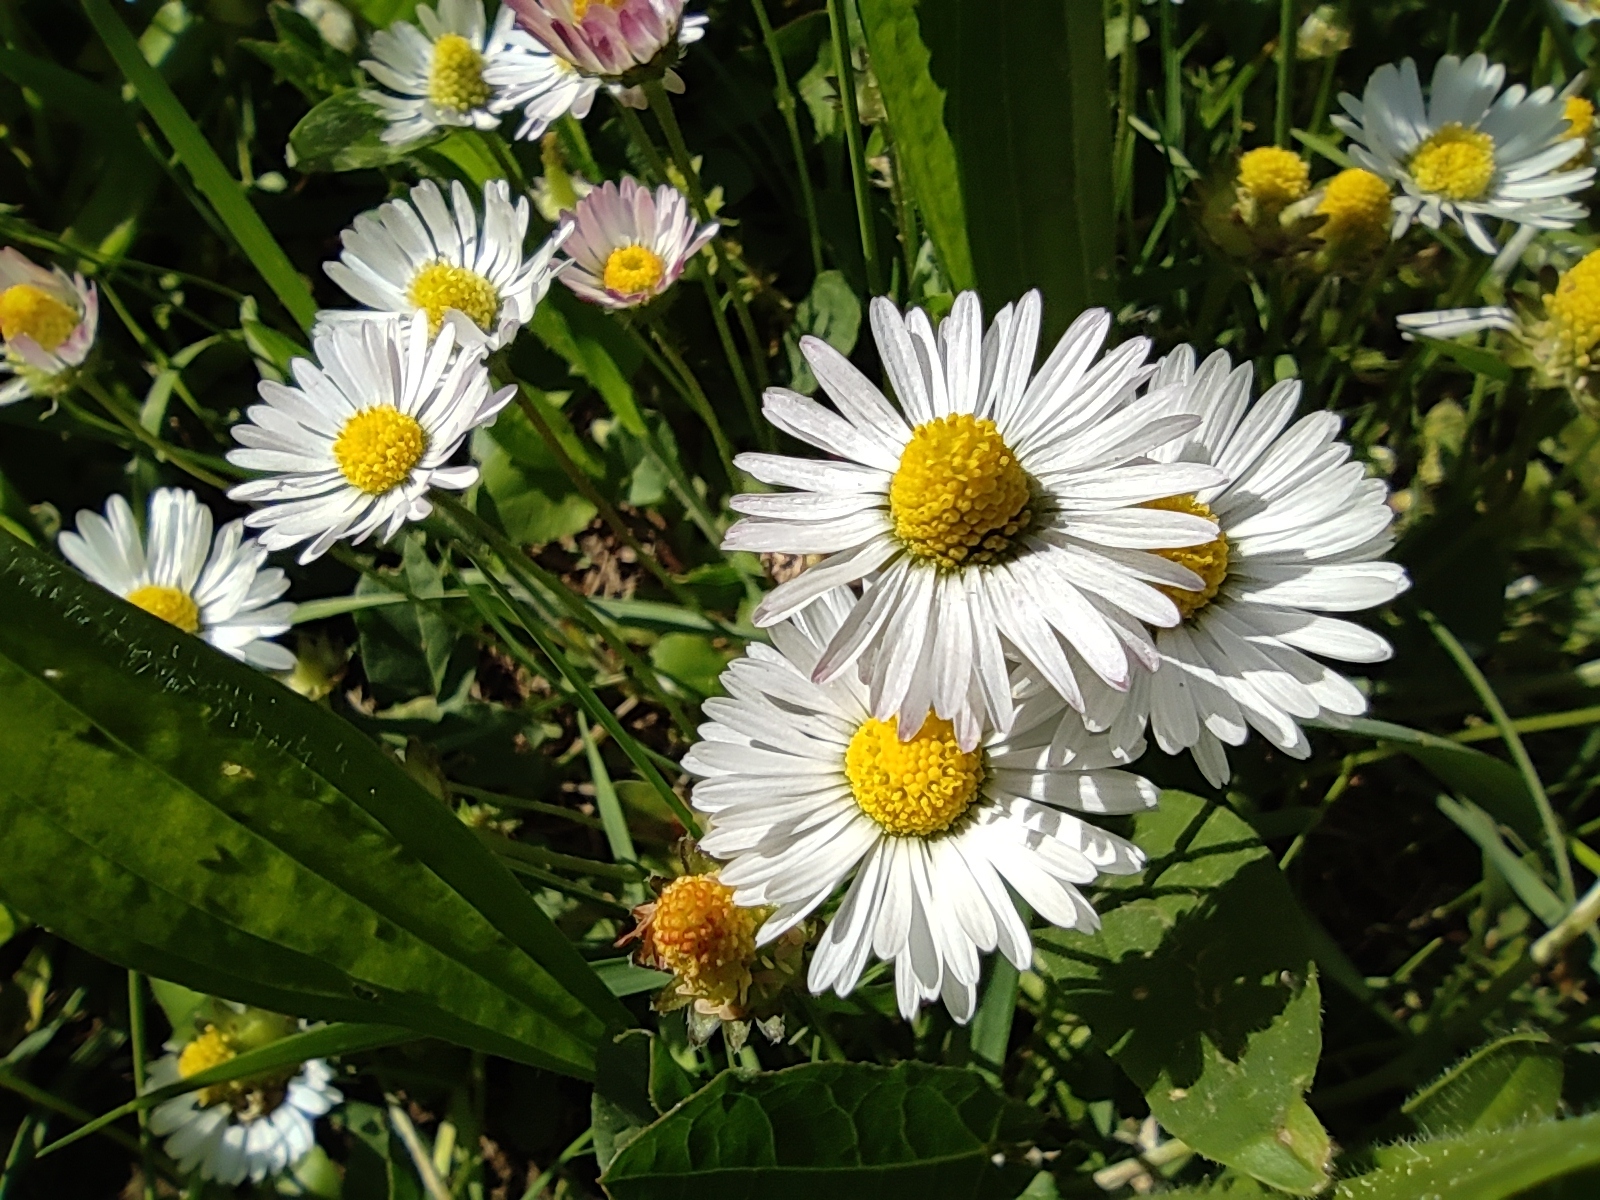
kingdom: Plantae
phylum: Tracheophyta
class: Magnoliopsida
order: Asterales
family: Asteraceae
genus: Bellis
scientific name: Bellis perennis
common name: Lawndaisy
